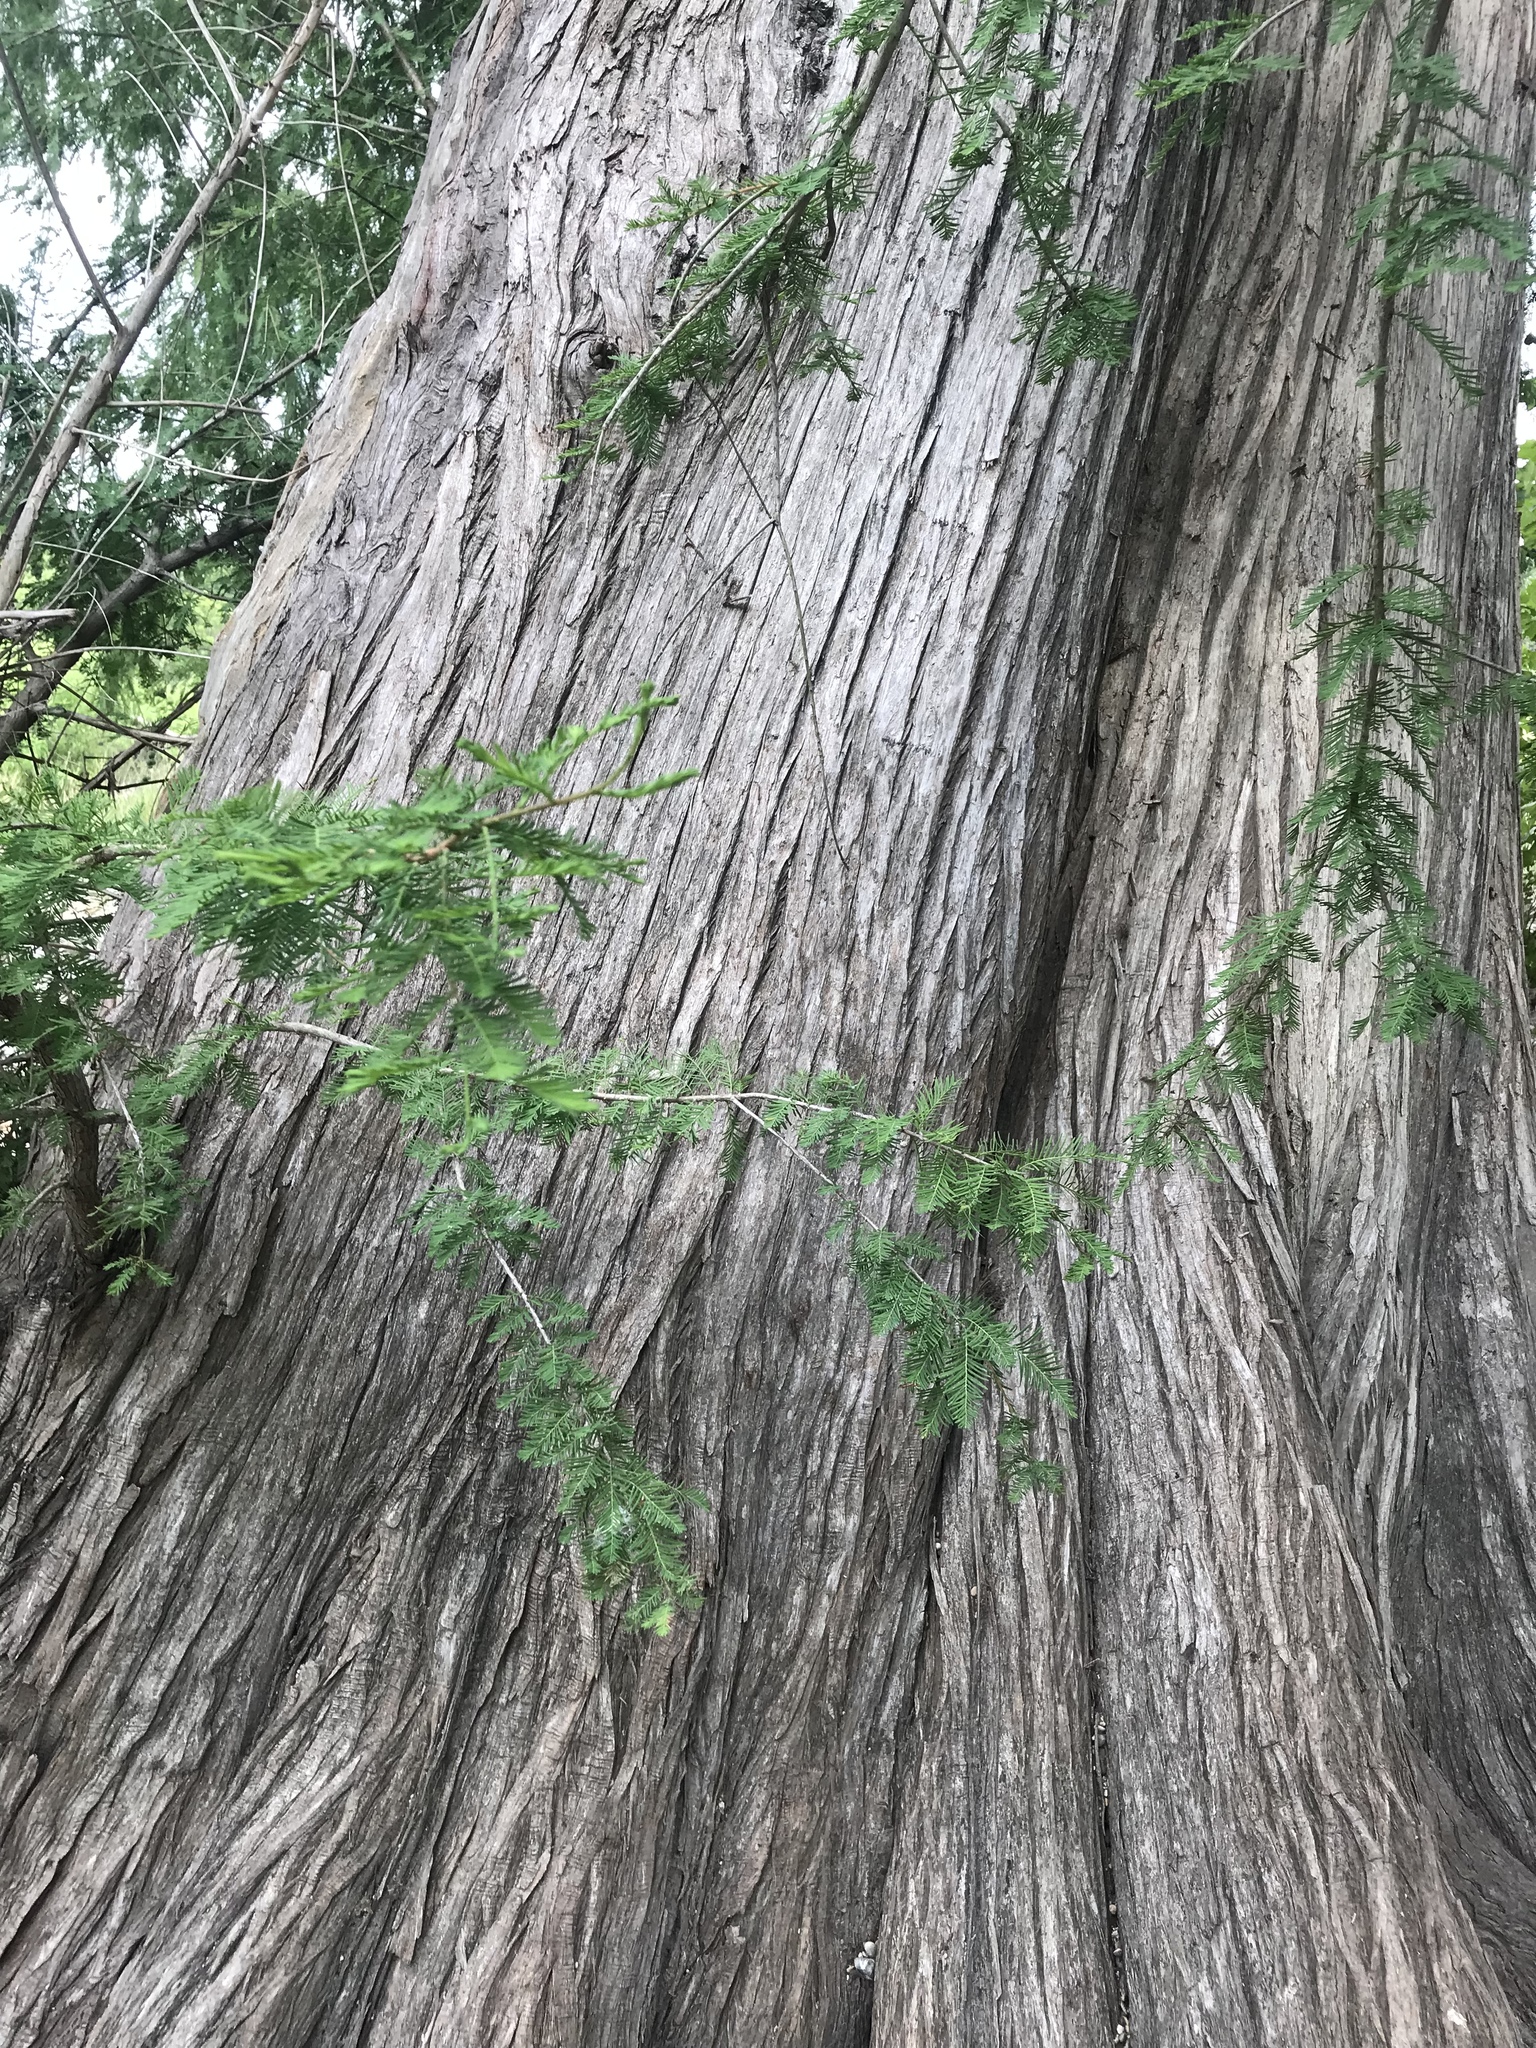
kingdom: Plantae
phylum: Tracheophyta
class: Pinopsida
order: Pinales
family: Cupressaceae
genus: Taxodium
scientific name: Taxodium distichum
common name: Bald cypress
